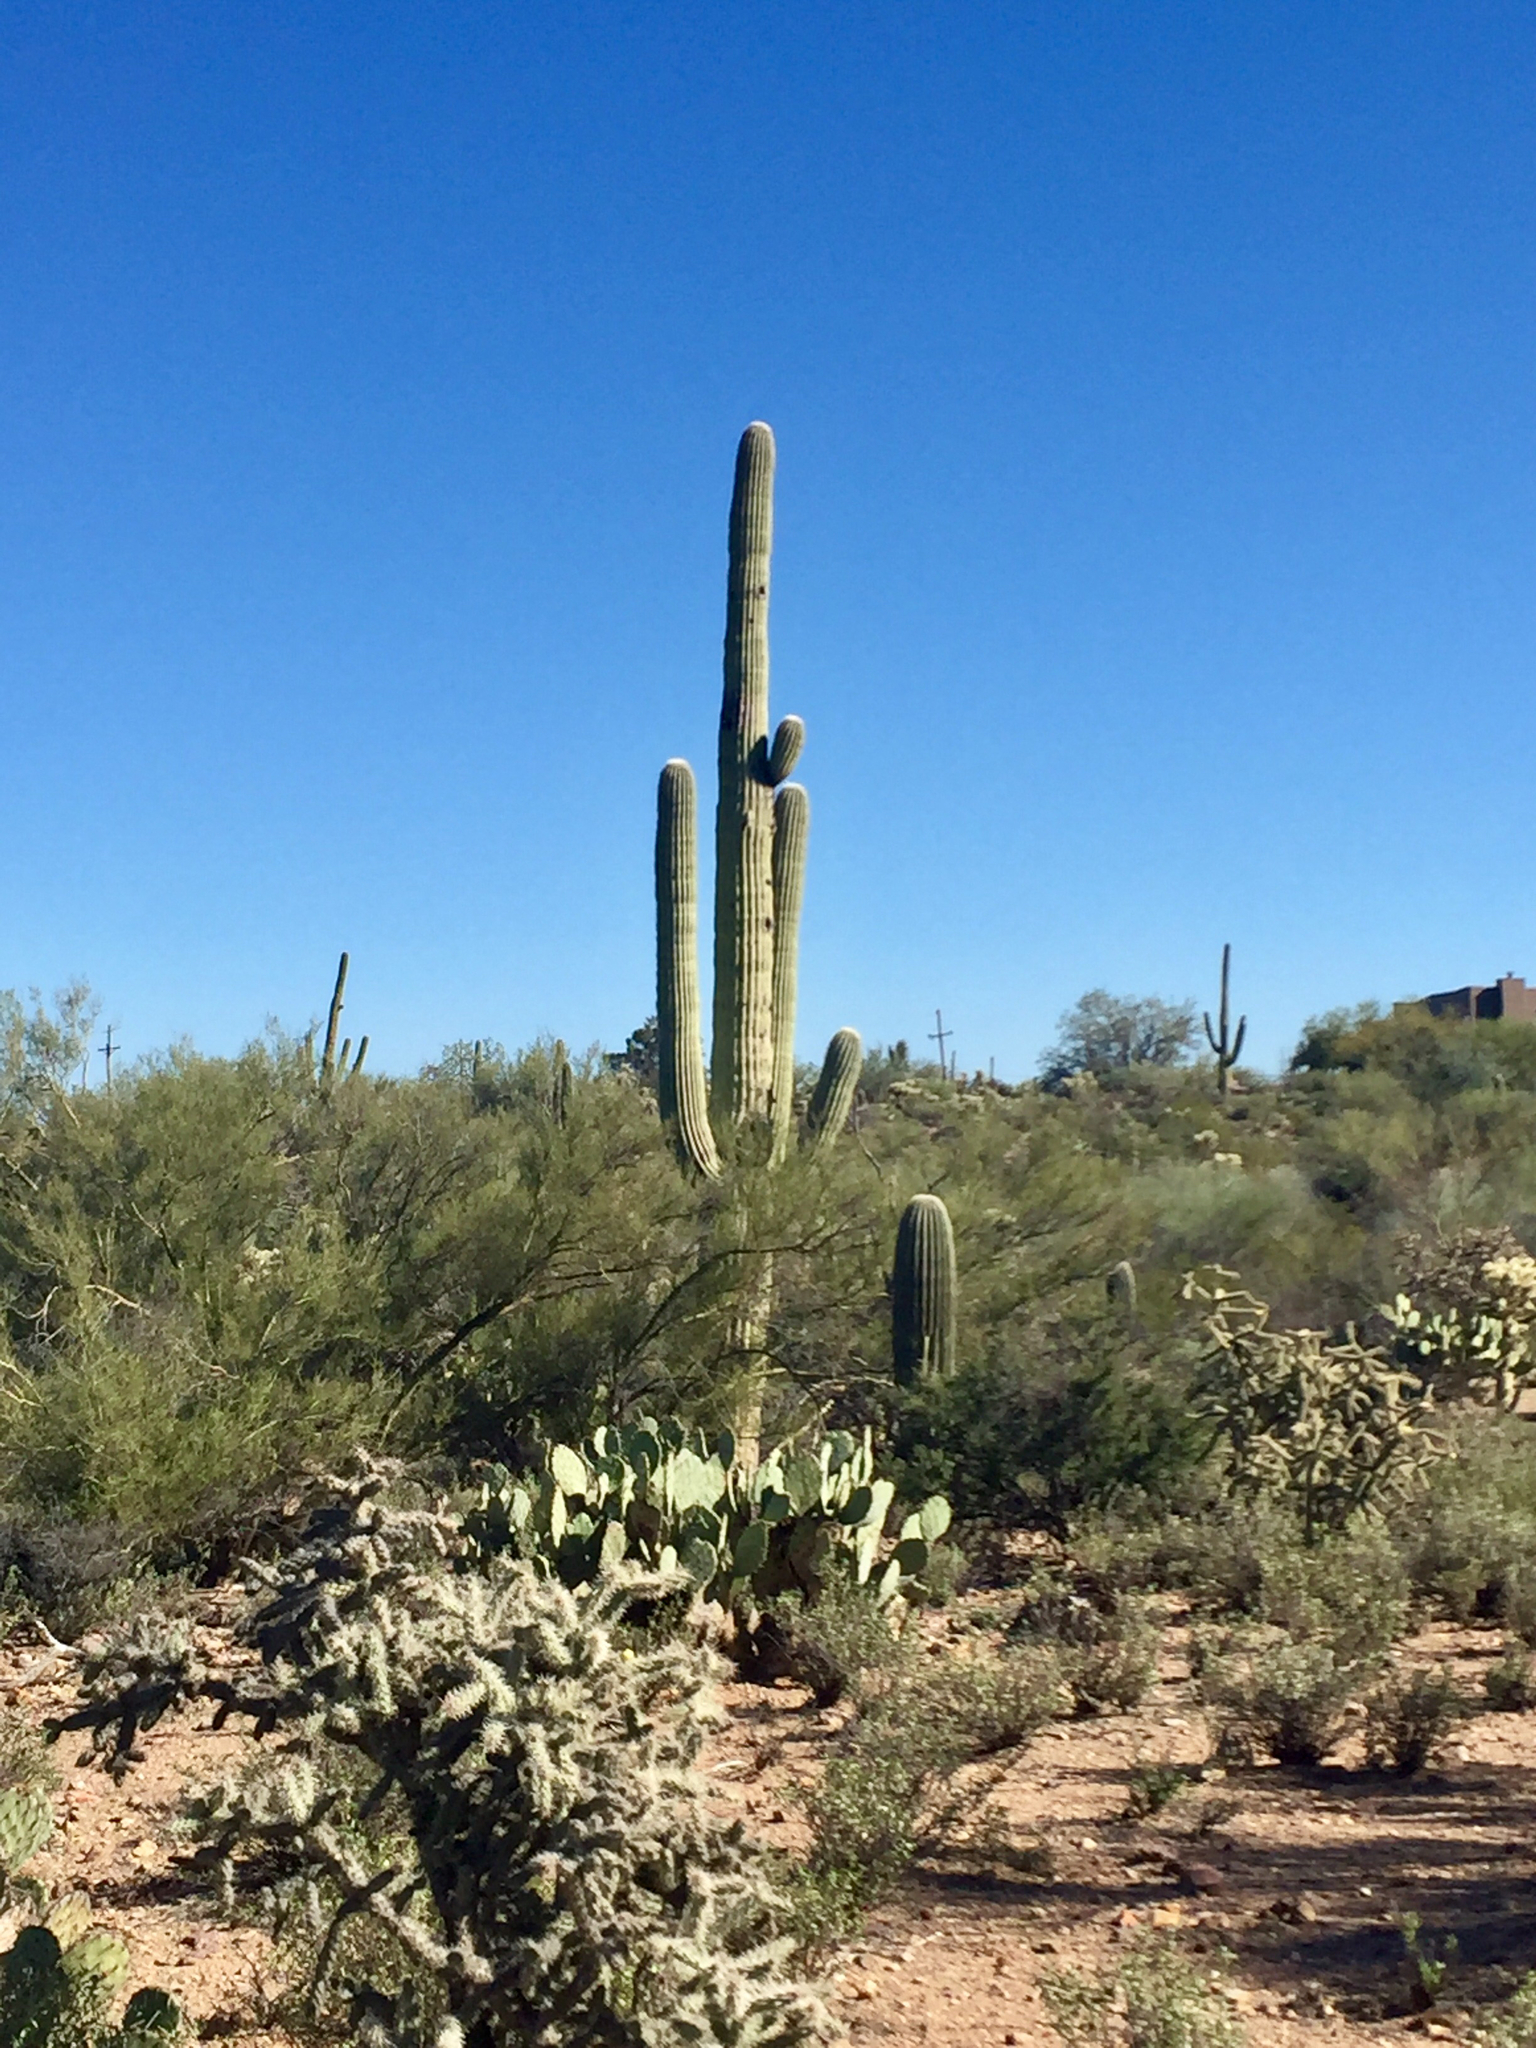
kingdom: Plantae
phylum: Tracheophyta
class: Magnoliopsida
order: Caryophyllales
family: Cactaceae
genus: Carnegiea
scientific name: Carnegiea gigantea
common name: Saguaro
